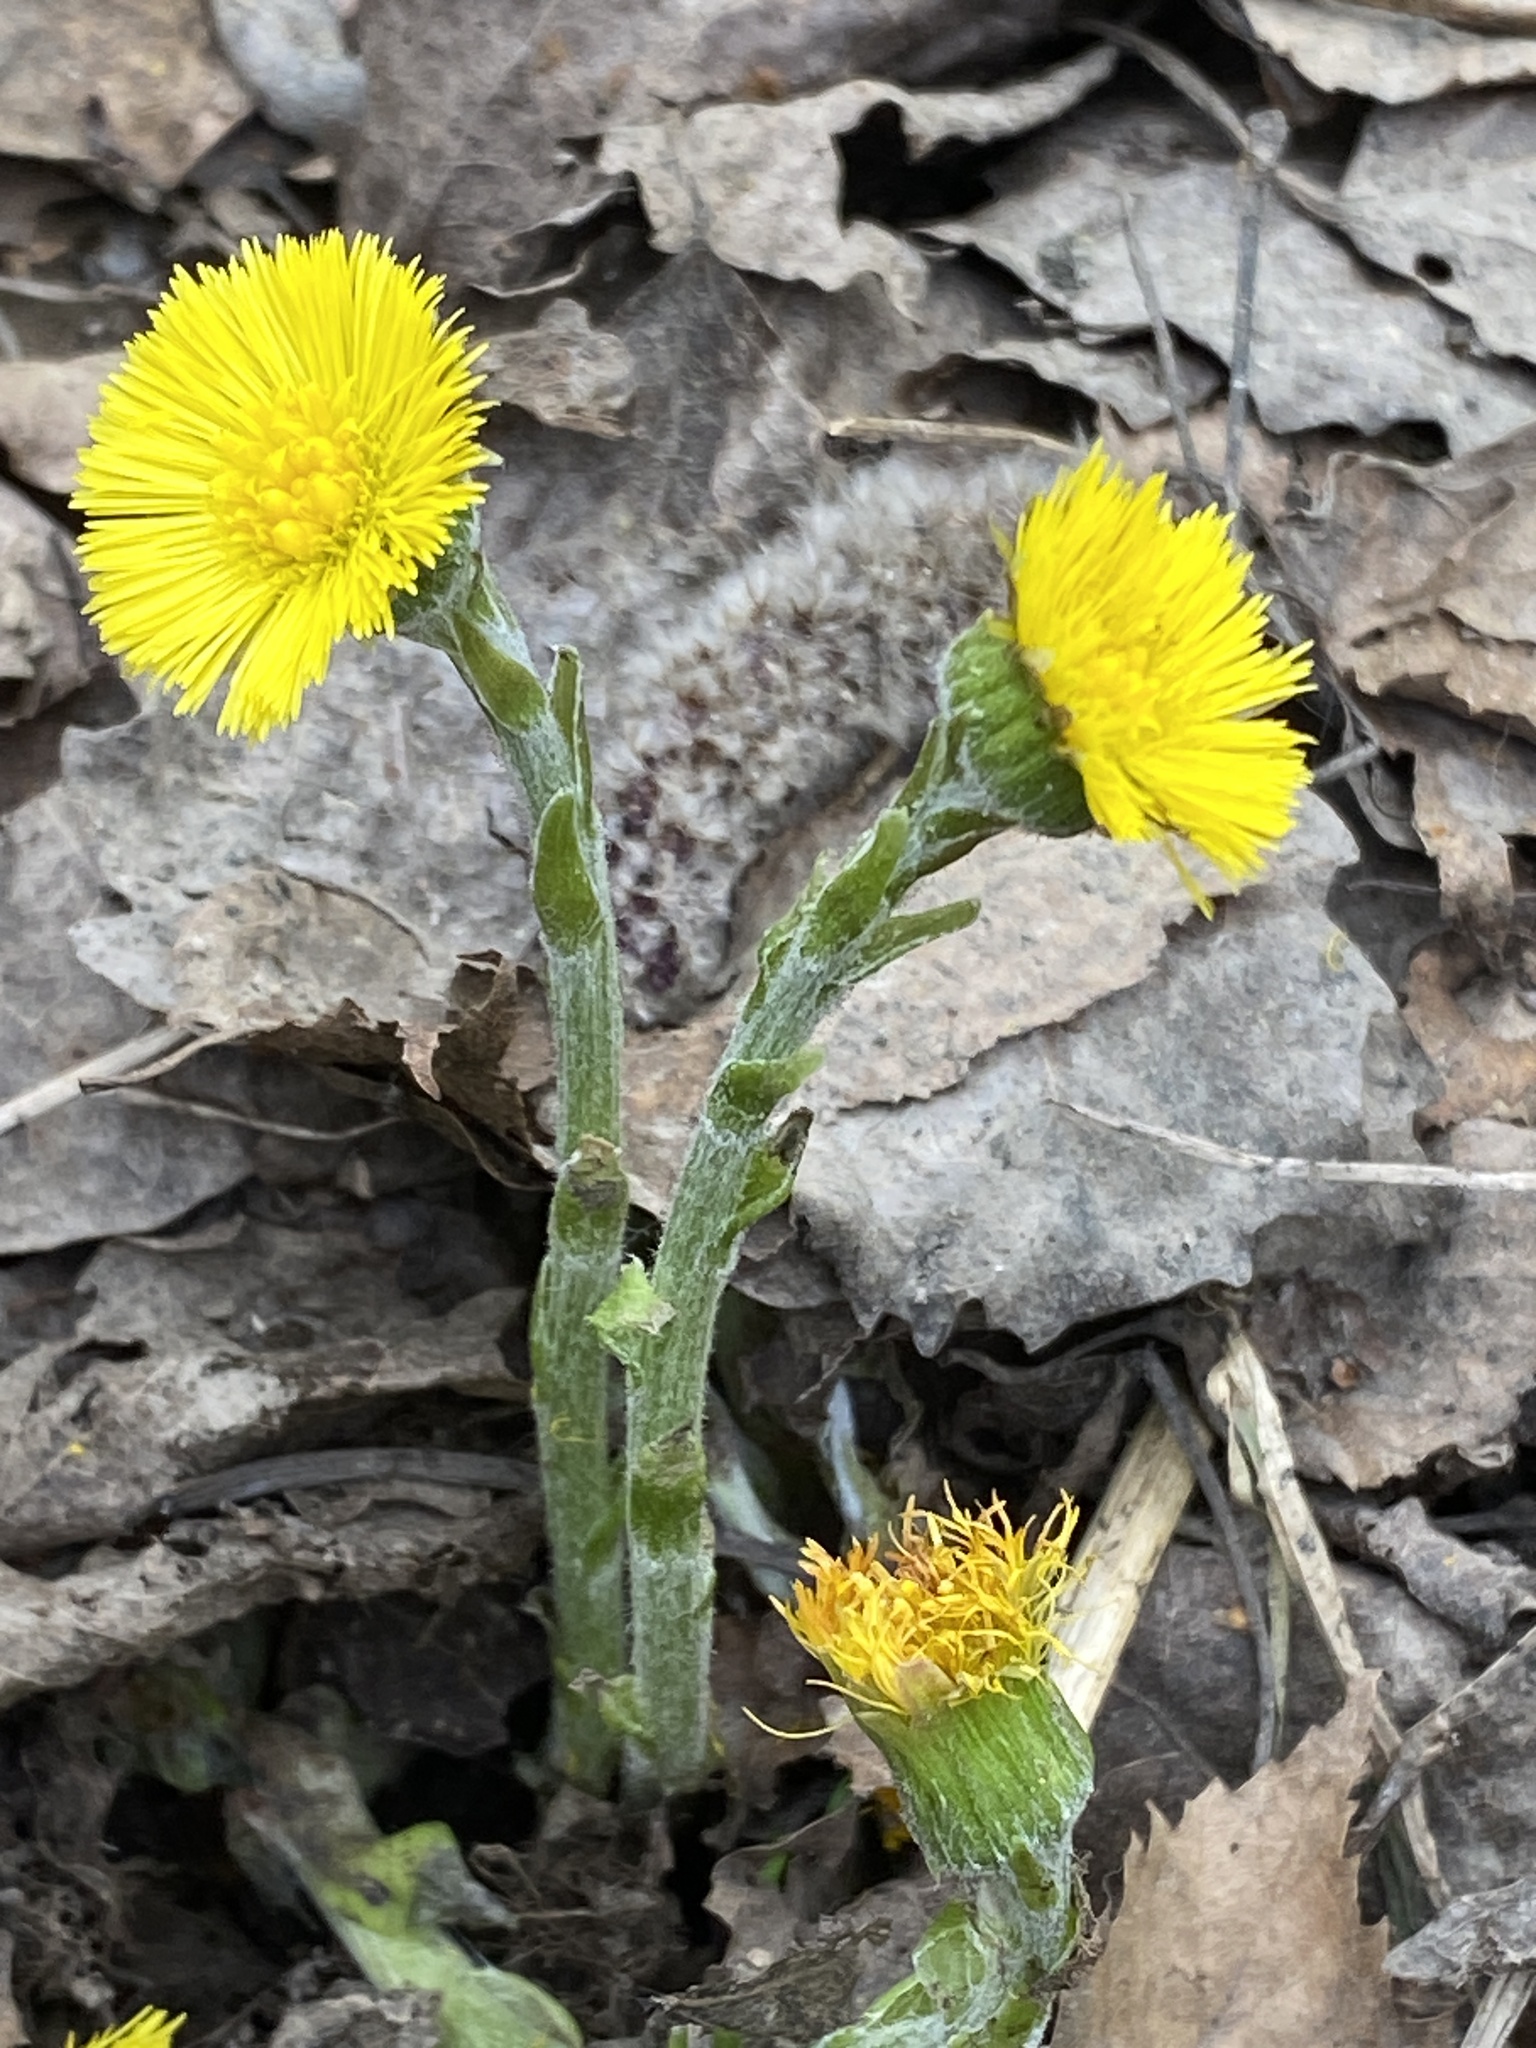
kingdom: Plantae
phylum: Tracheophyta
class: Magnoliopsida
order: Asterales
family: Asteraceae
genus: Tussilago
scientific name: Tussilago farfara
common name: Coltsfoot
